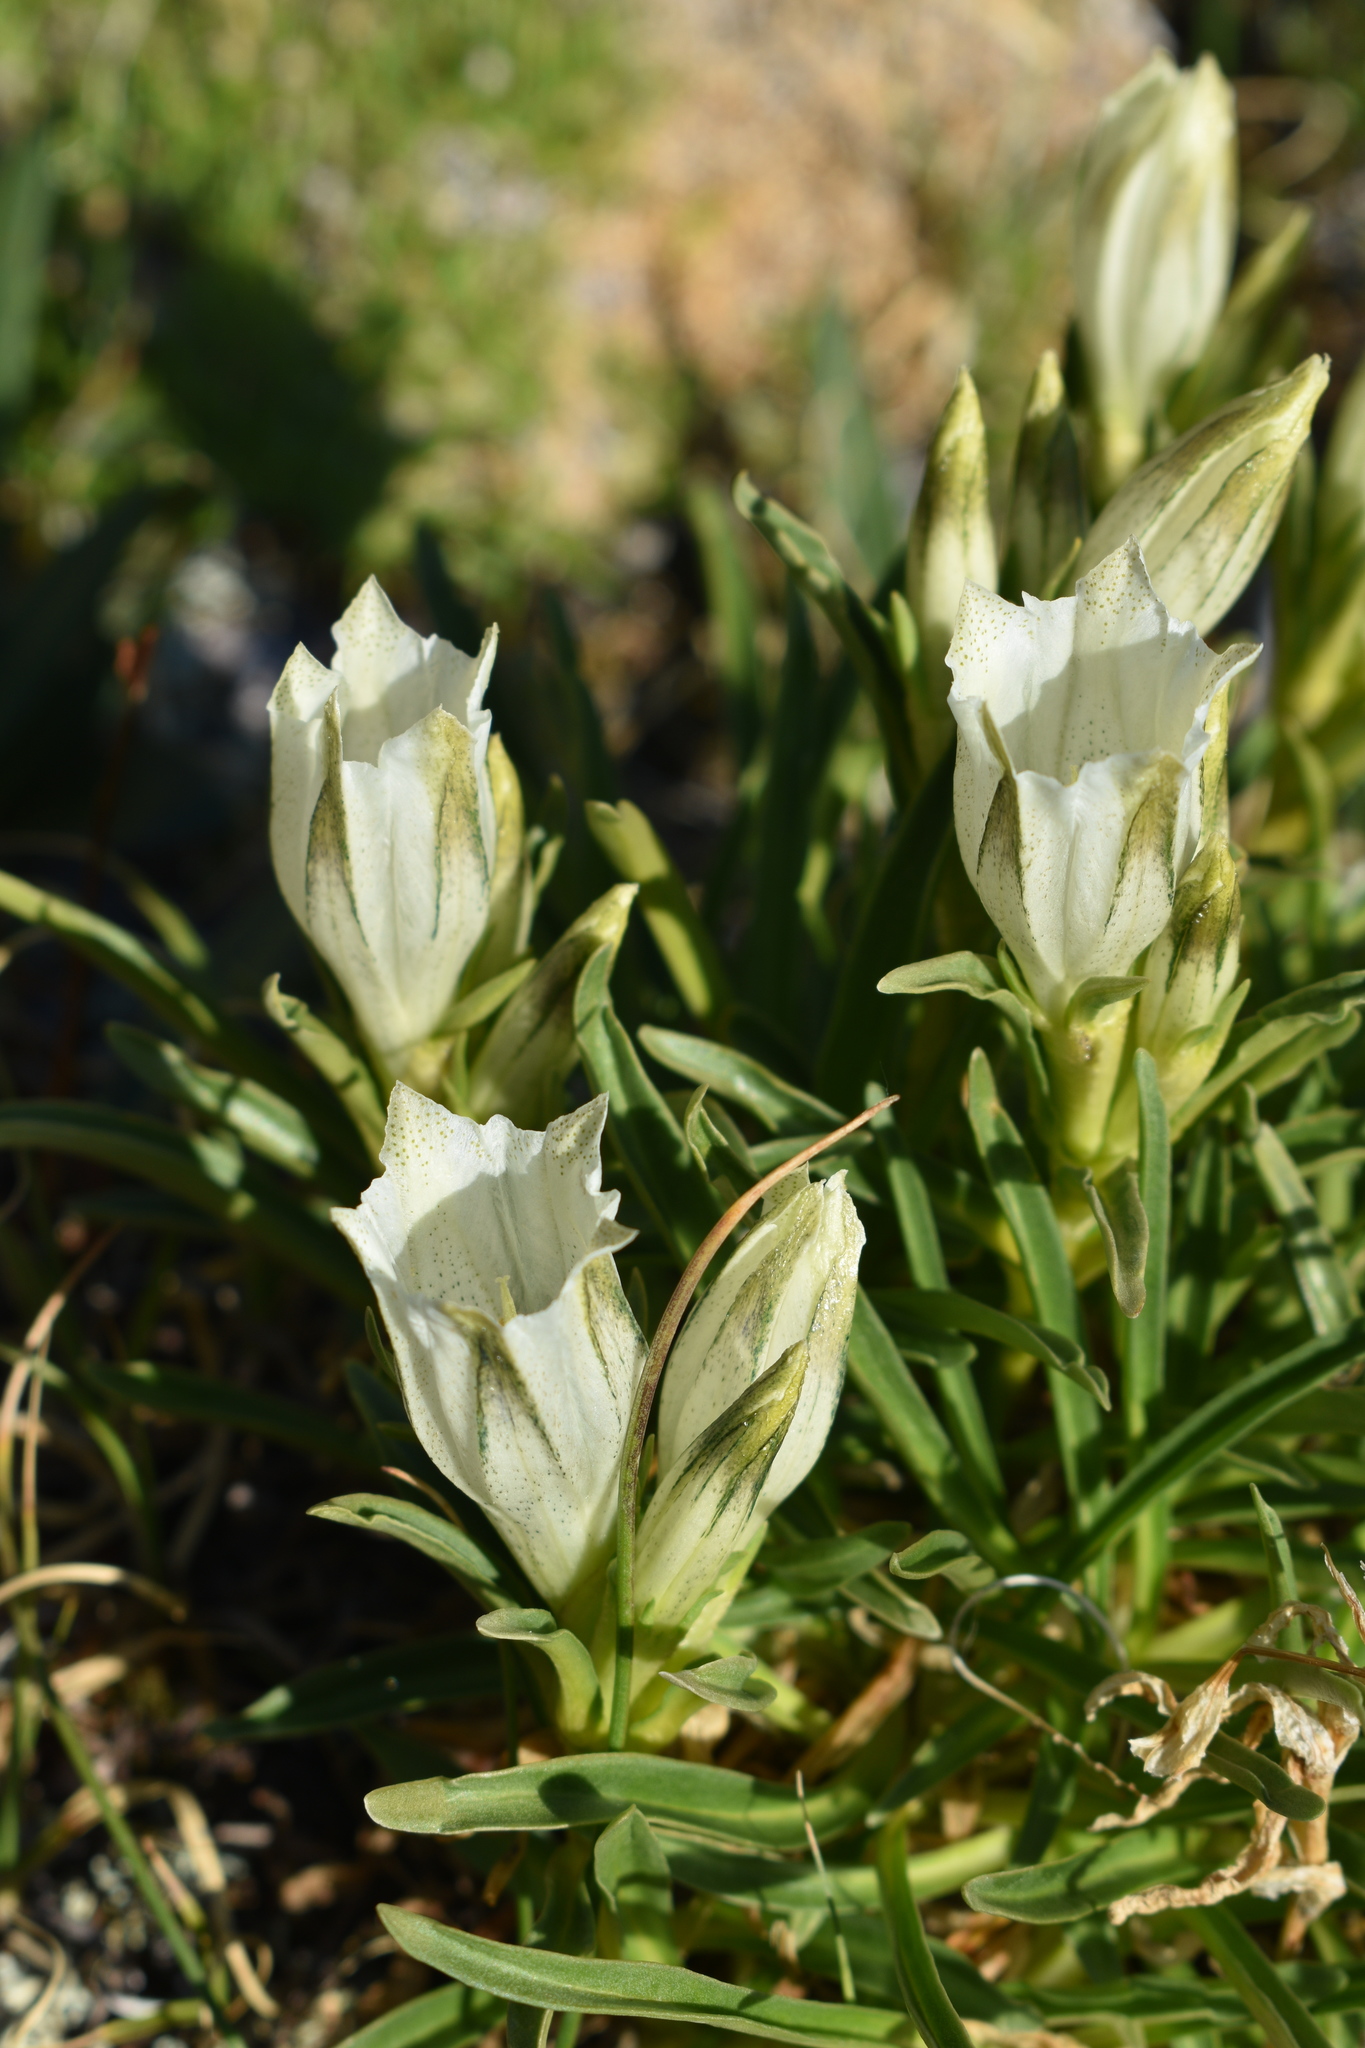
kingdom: Plantae
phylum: Tracheophyta
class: Magnoliopsida
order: Gentianales
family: Gentianaceae
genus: Gentiana
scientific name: Gentiana algida
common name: Arctic gentian
